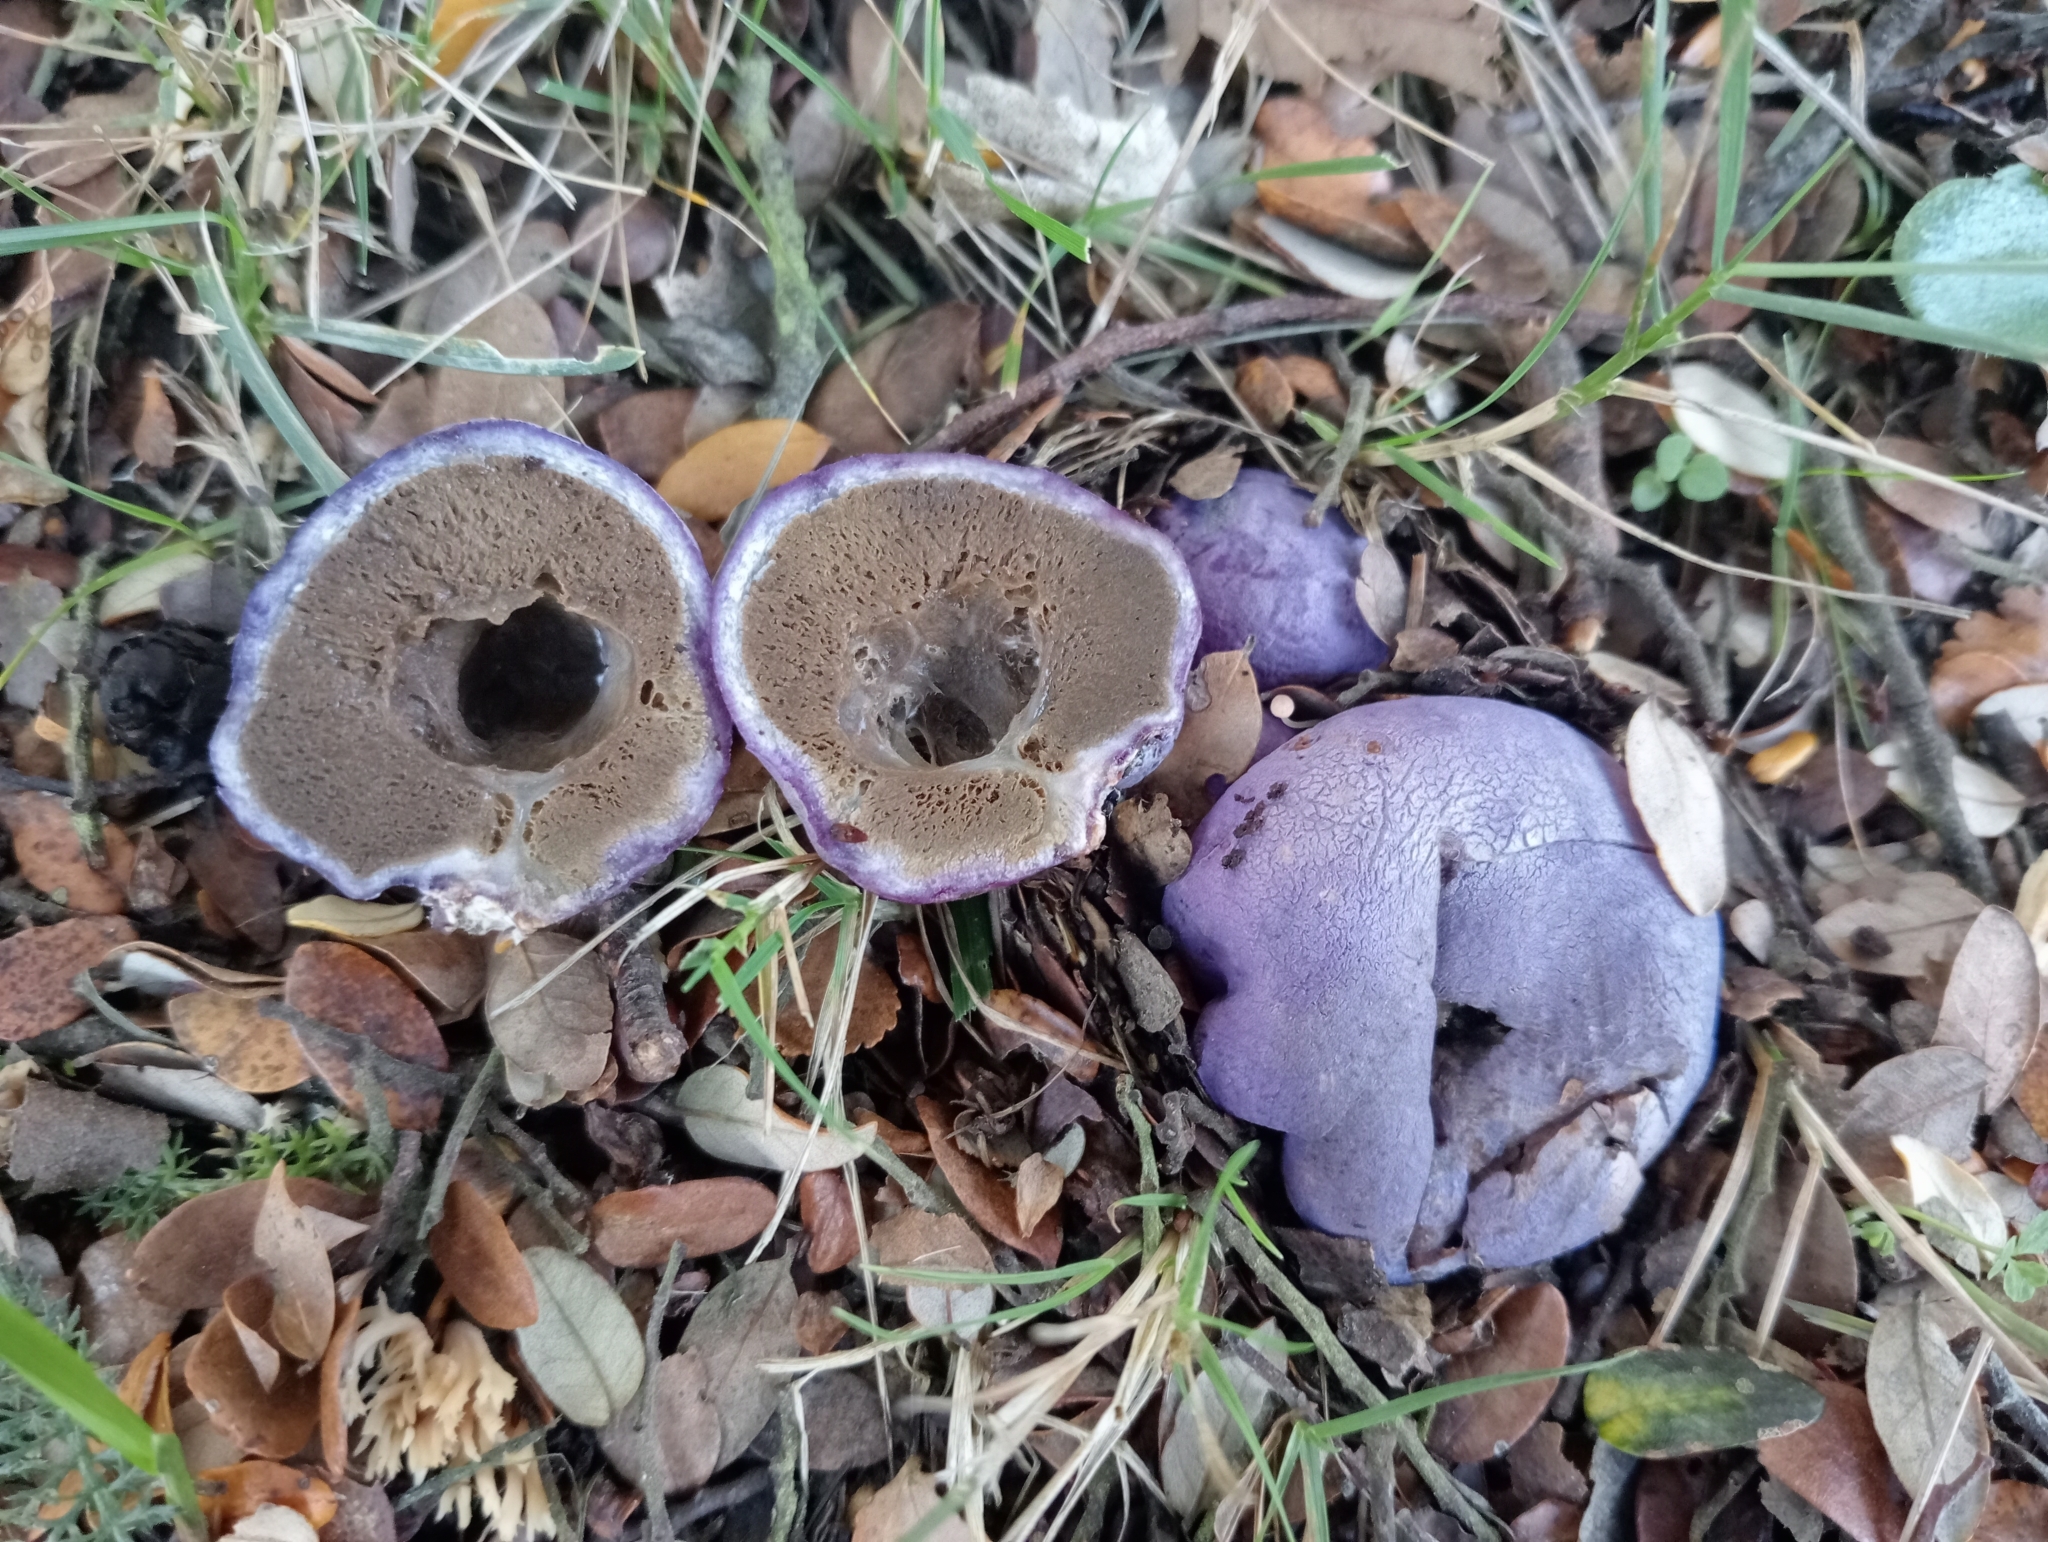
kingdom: Fungi
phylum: Basidiomycota
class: Agaricomycetes
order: Hysterangiales
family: Gallaceaceae
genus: Gallacea
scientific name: Gallacea scleroderma
